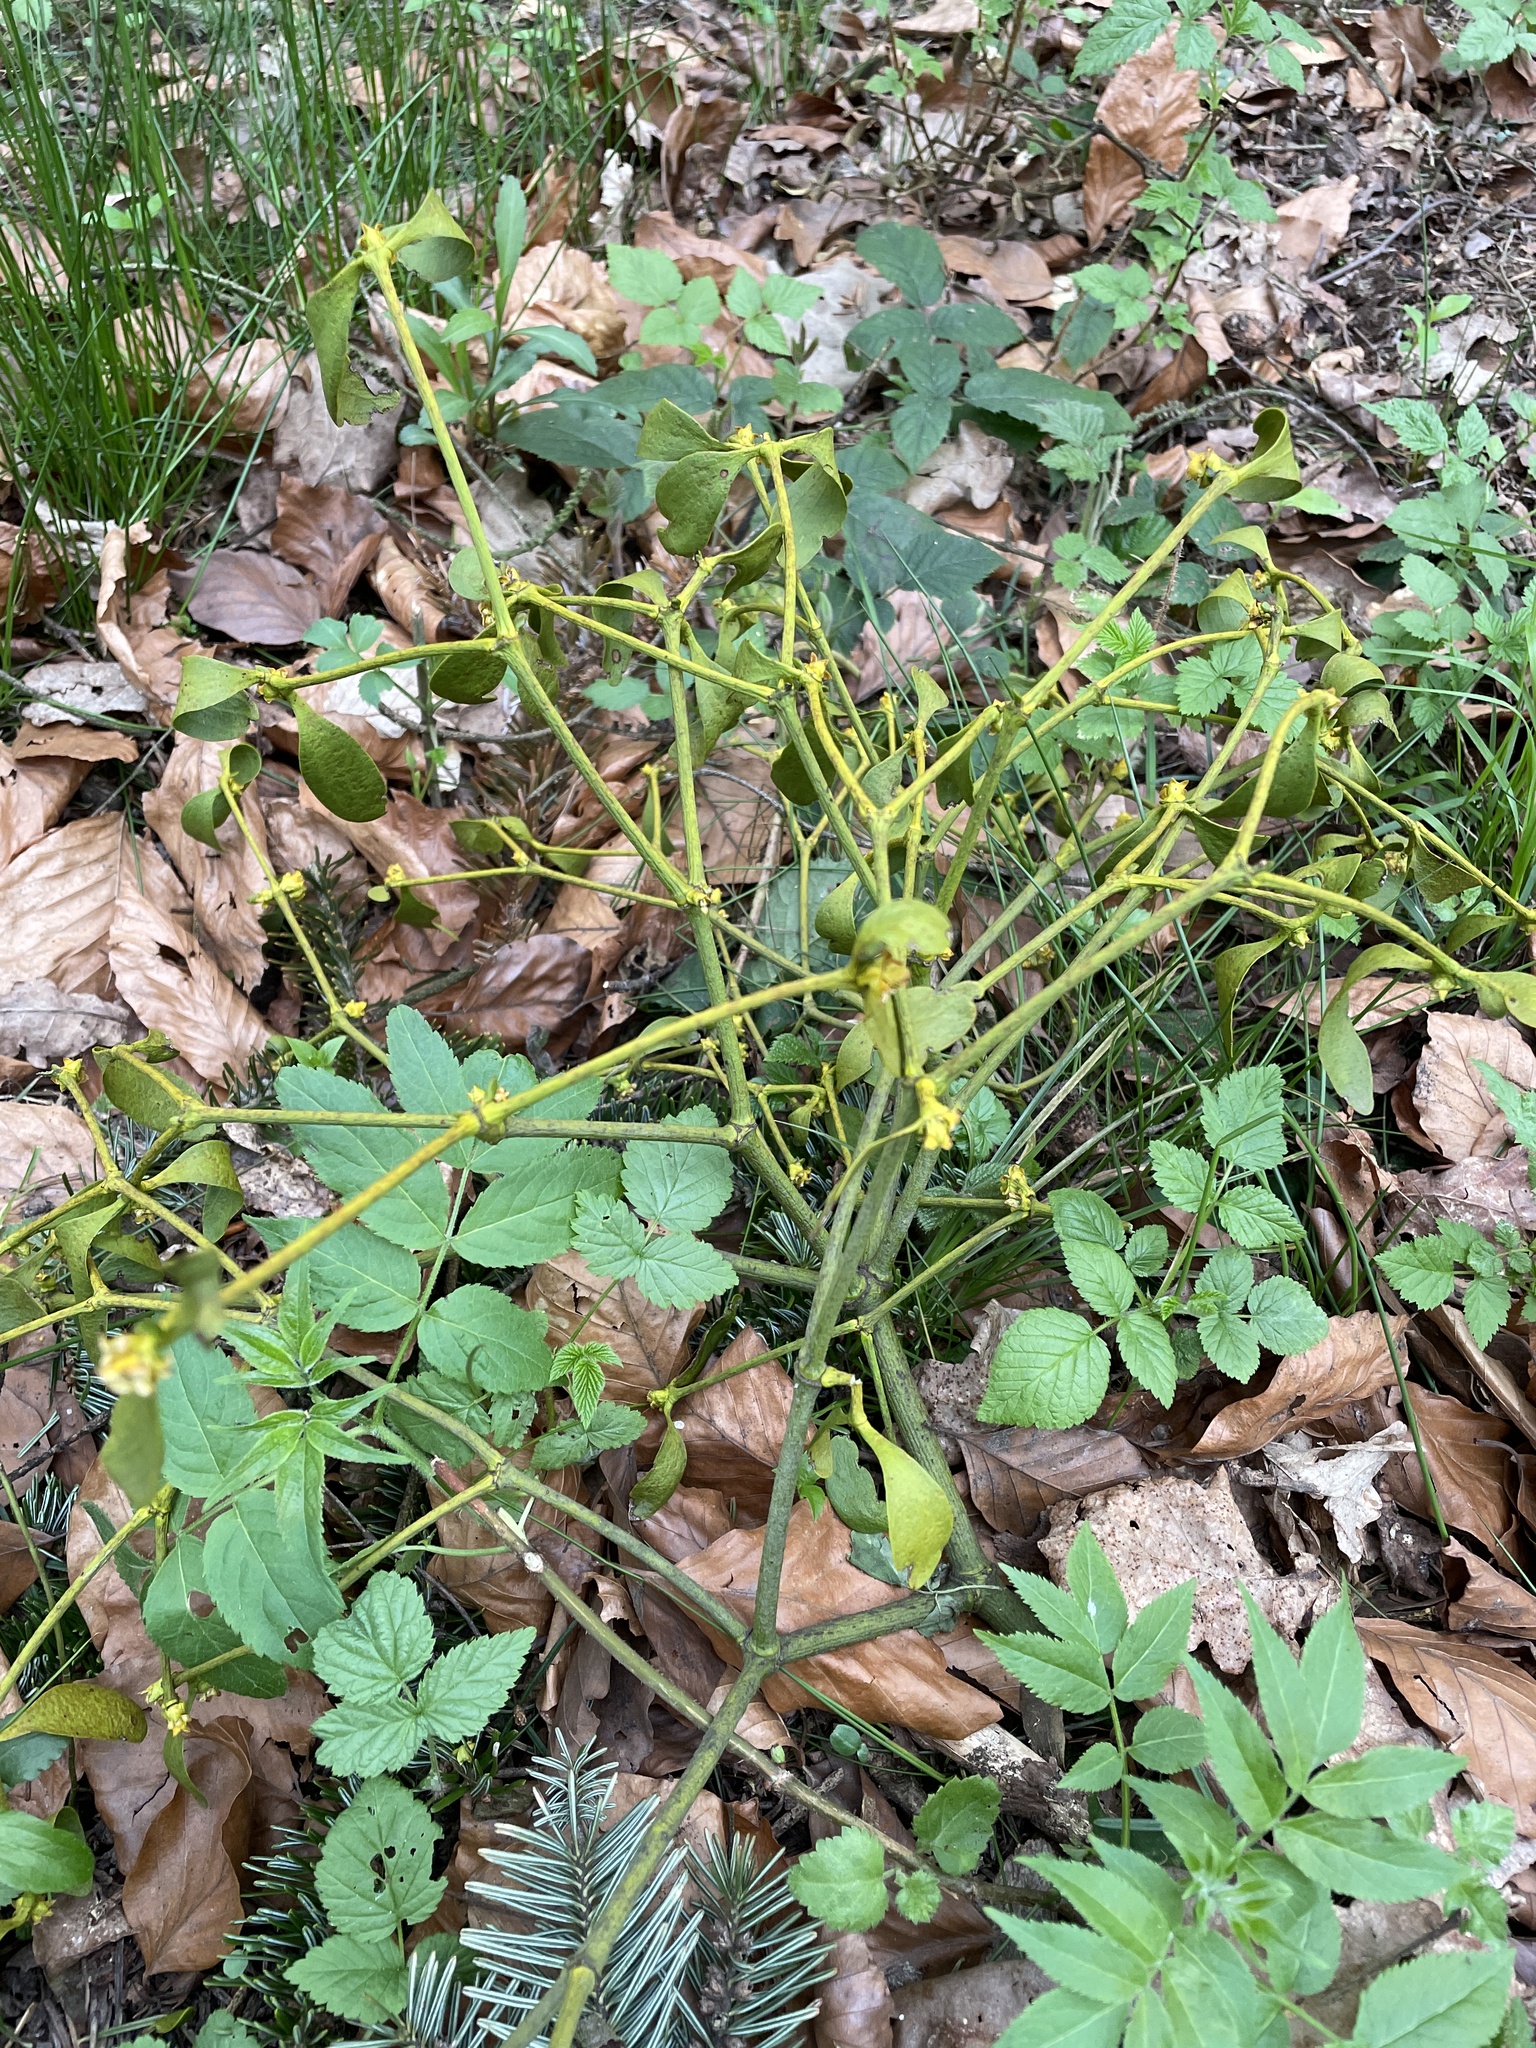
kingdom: Plantae
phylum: Tracheophyta
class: Magnoliopsida
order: Santalales
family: Viscaceae
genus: Viscum
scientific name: Viscum album
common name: Mistletoe
